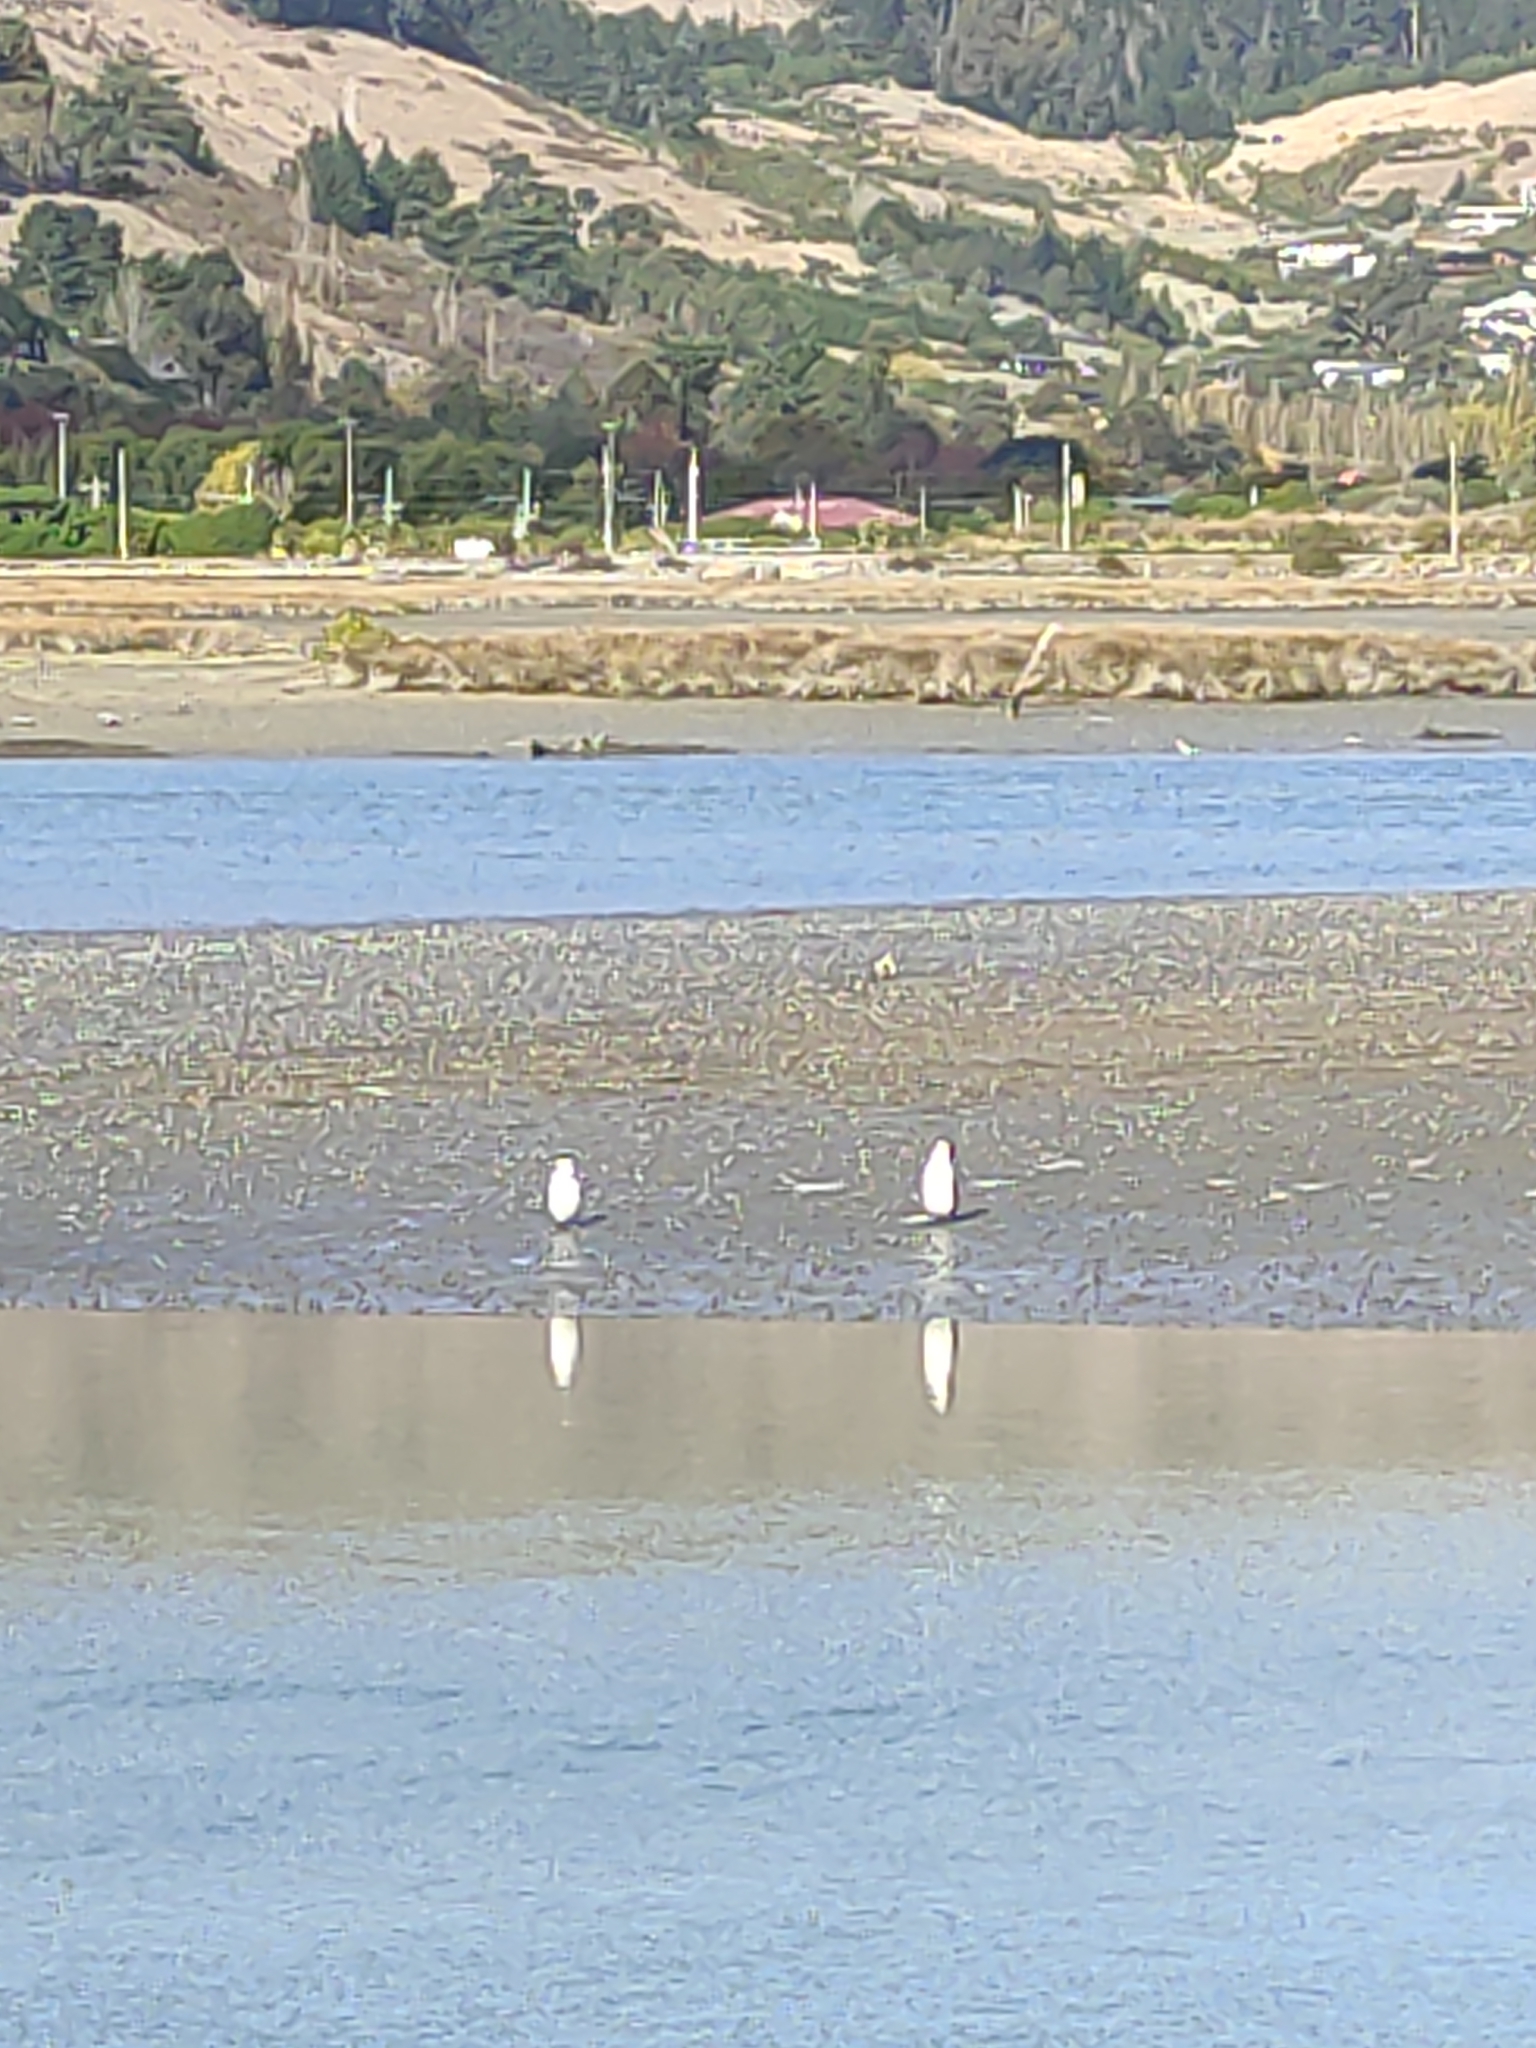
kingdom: Animalia
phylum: Chordata
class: Aves
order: Suliformes
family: Phalacrocoracidae
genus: Phalacrocorax
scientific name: Phalacrocorax varius
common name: Pied cormorant
